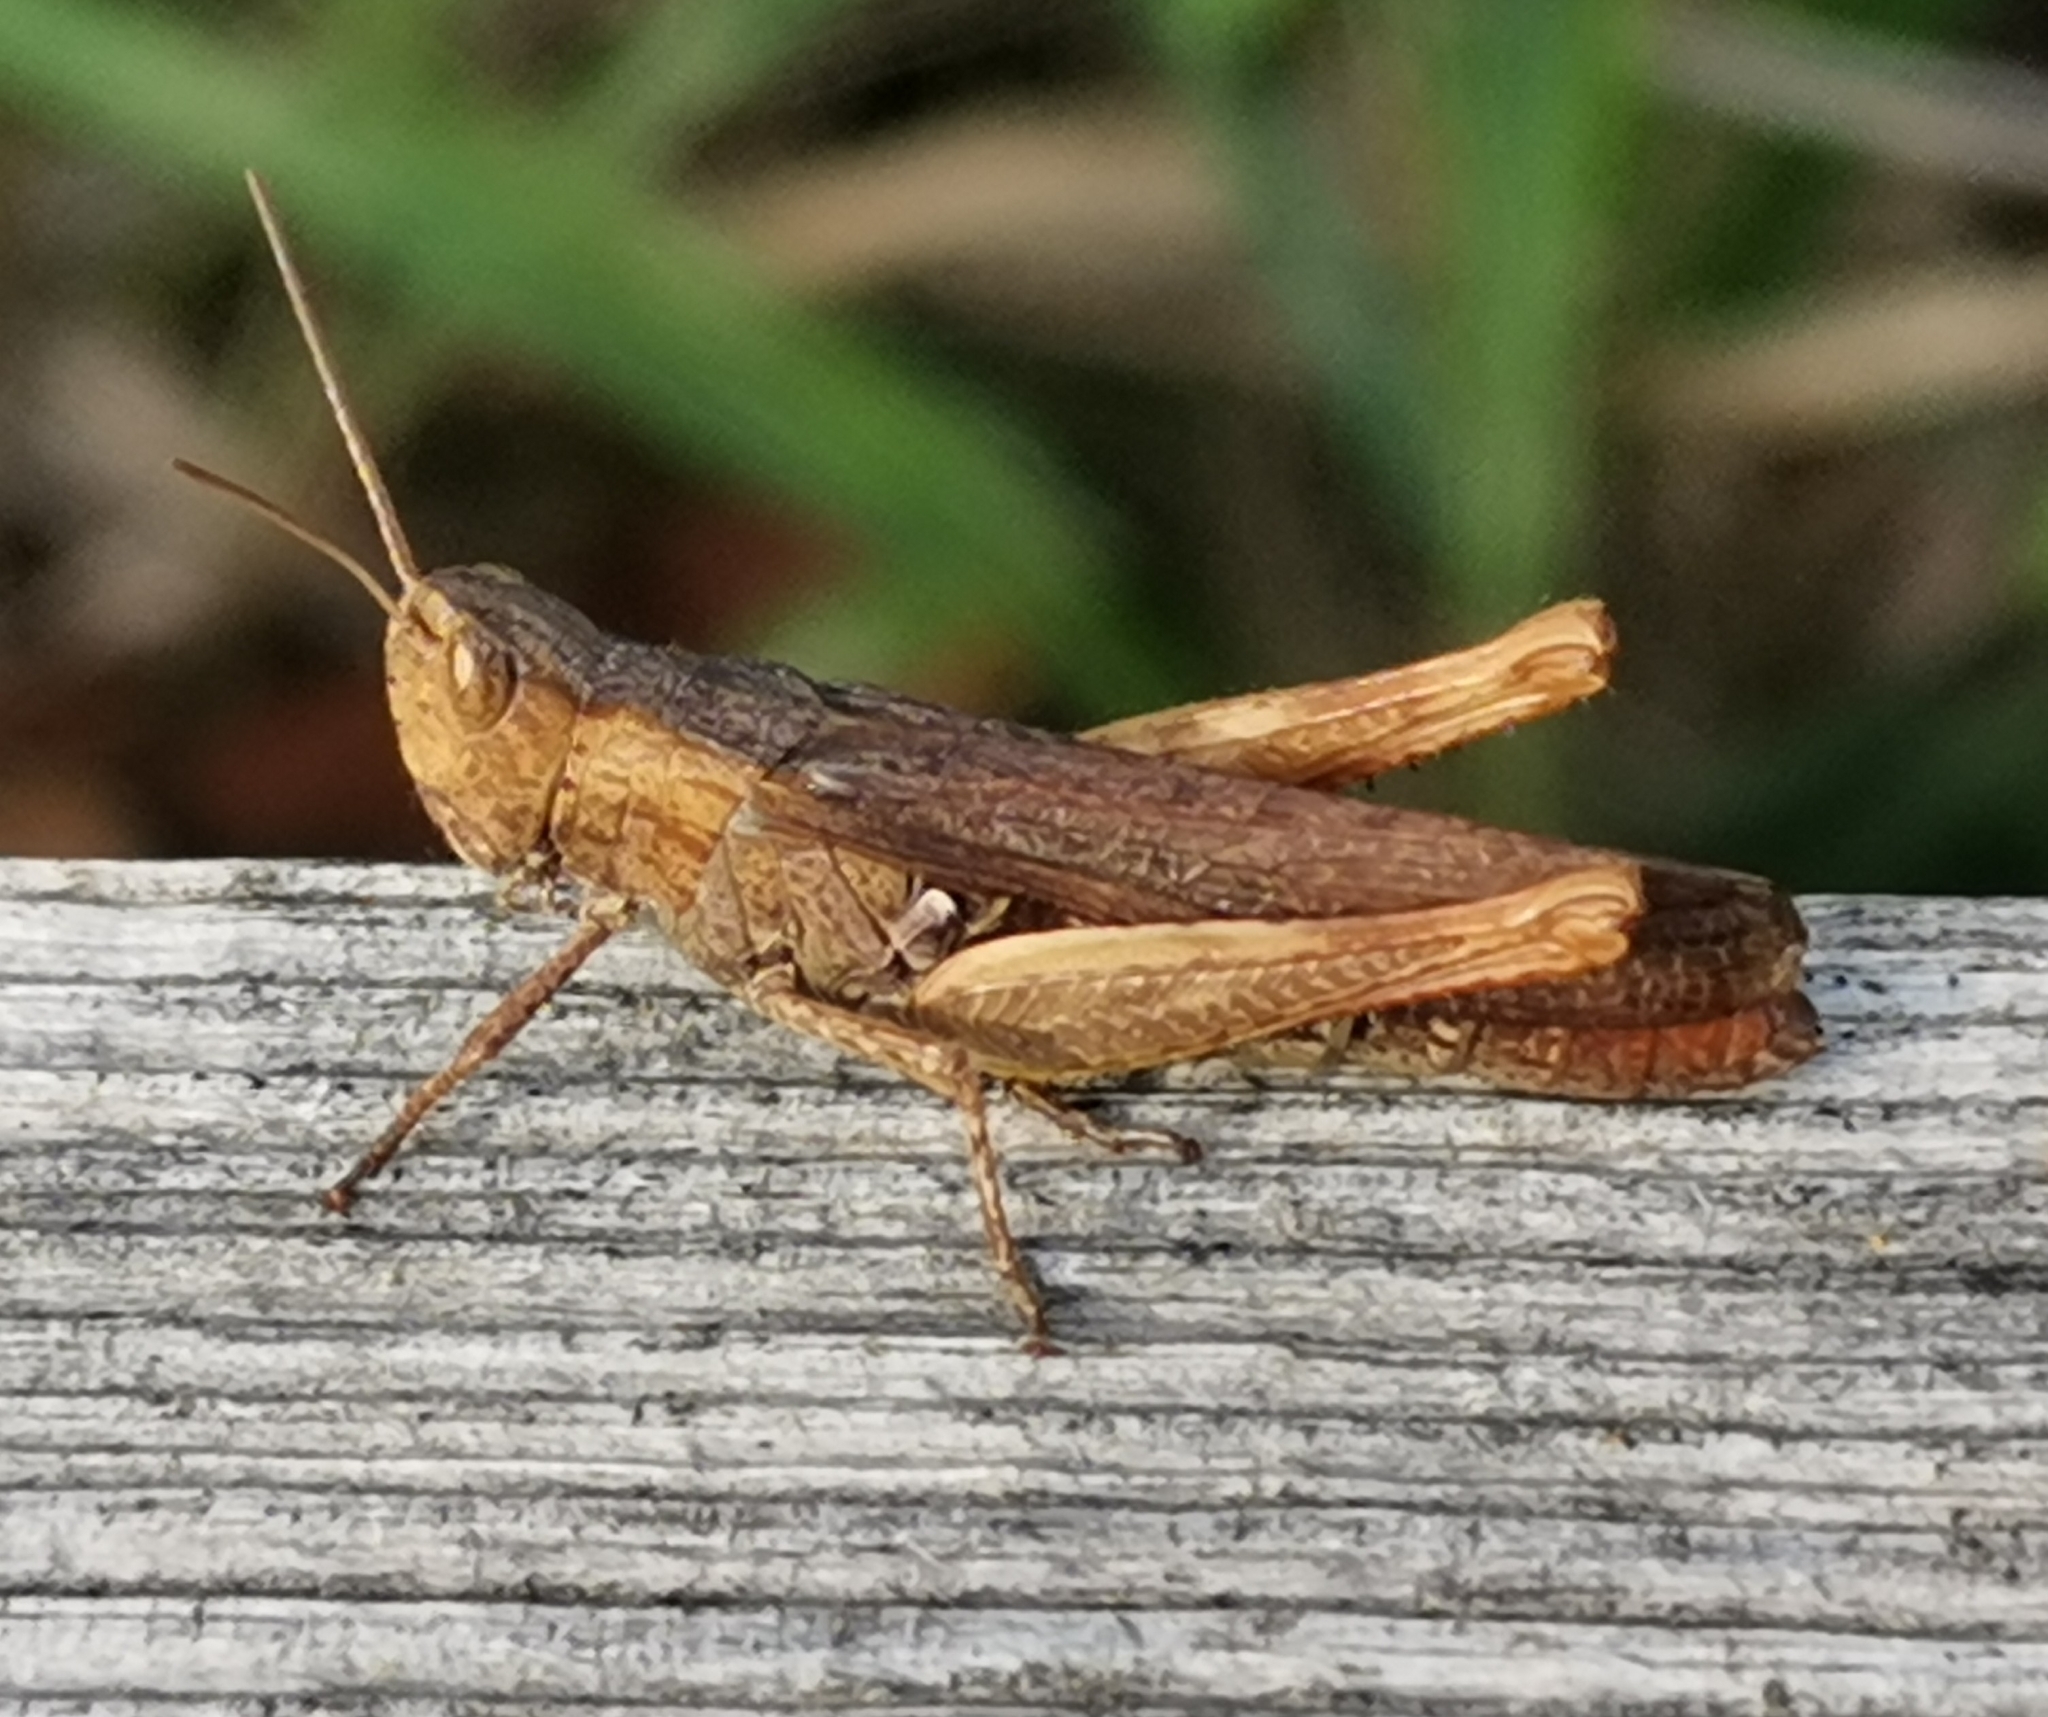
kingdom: Animalia
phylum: Arthropoda
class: Insecta
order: Orthoptera
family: Acrididae
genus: Chorthippus
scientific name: Chorthippus brunneus
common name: Field grasshopper
